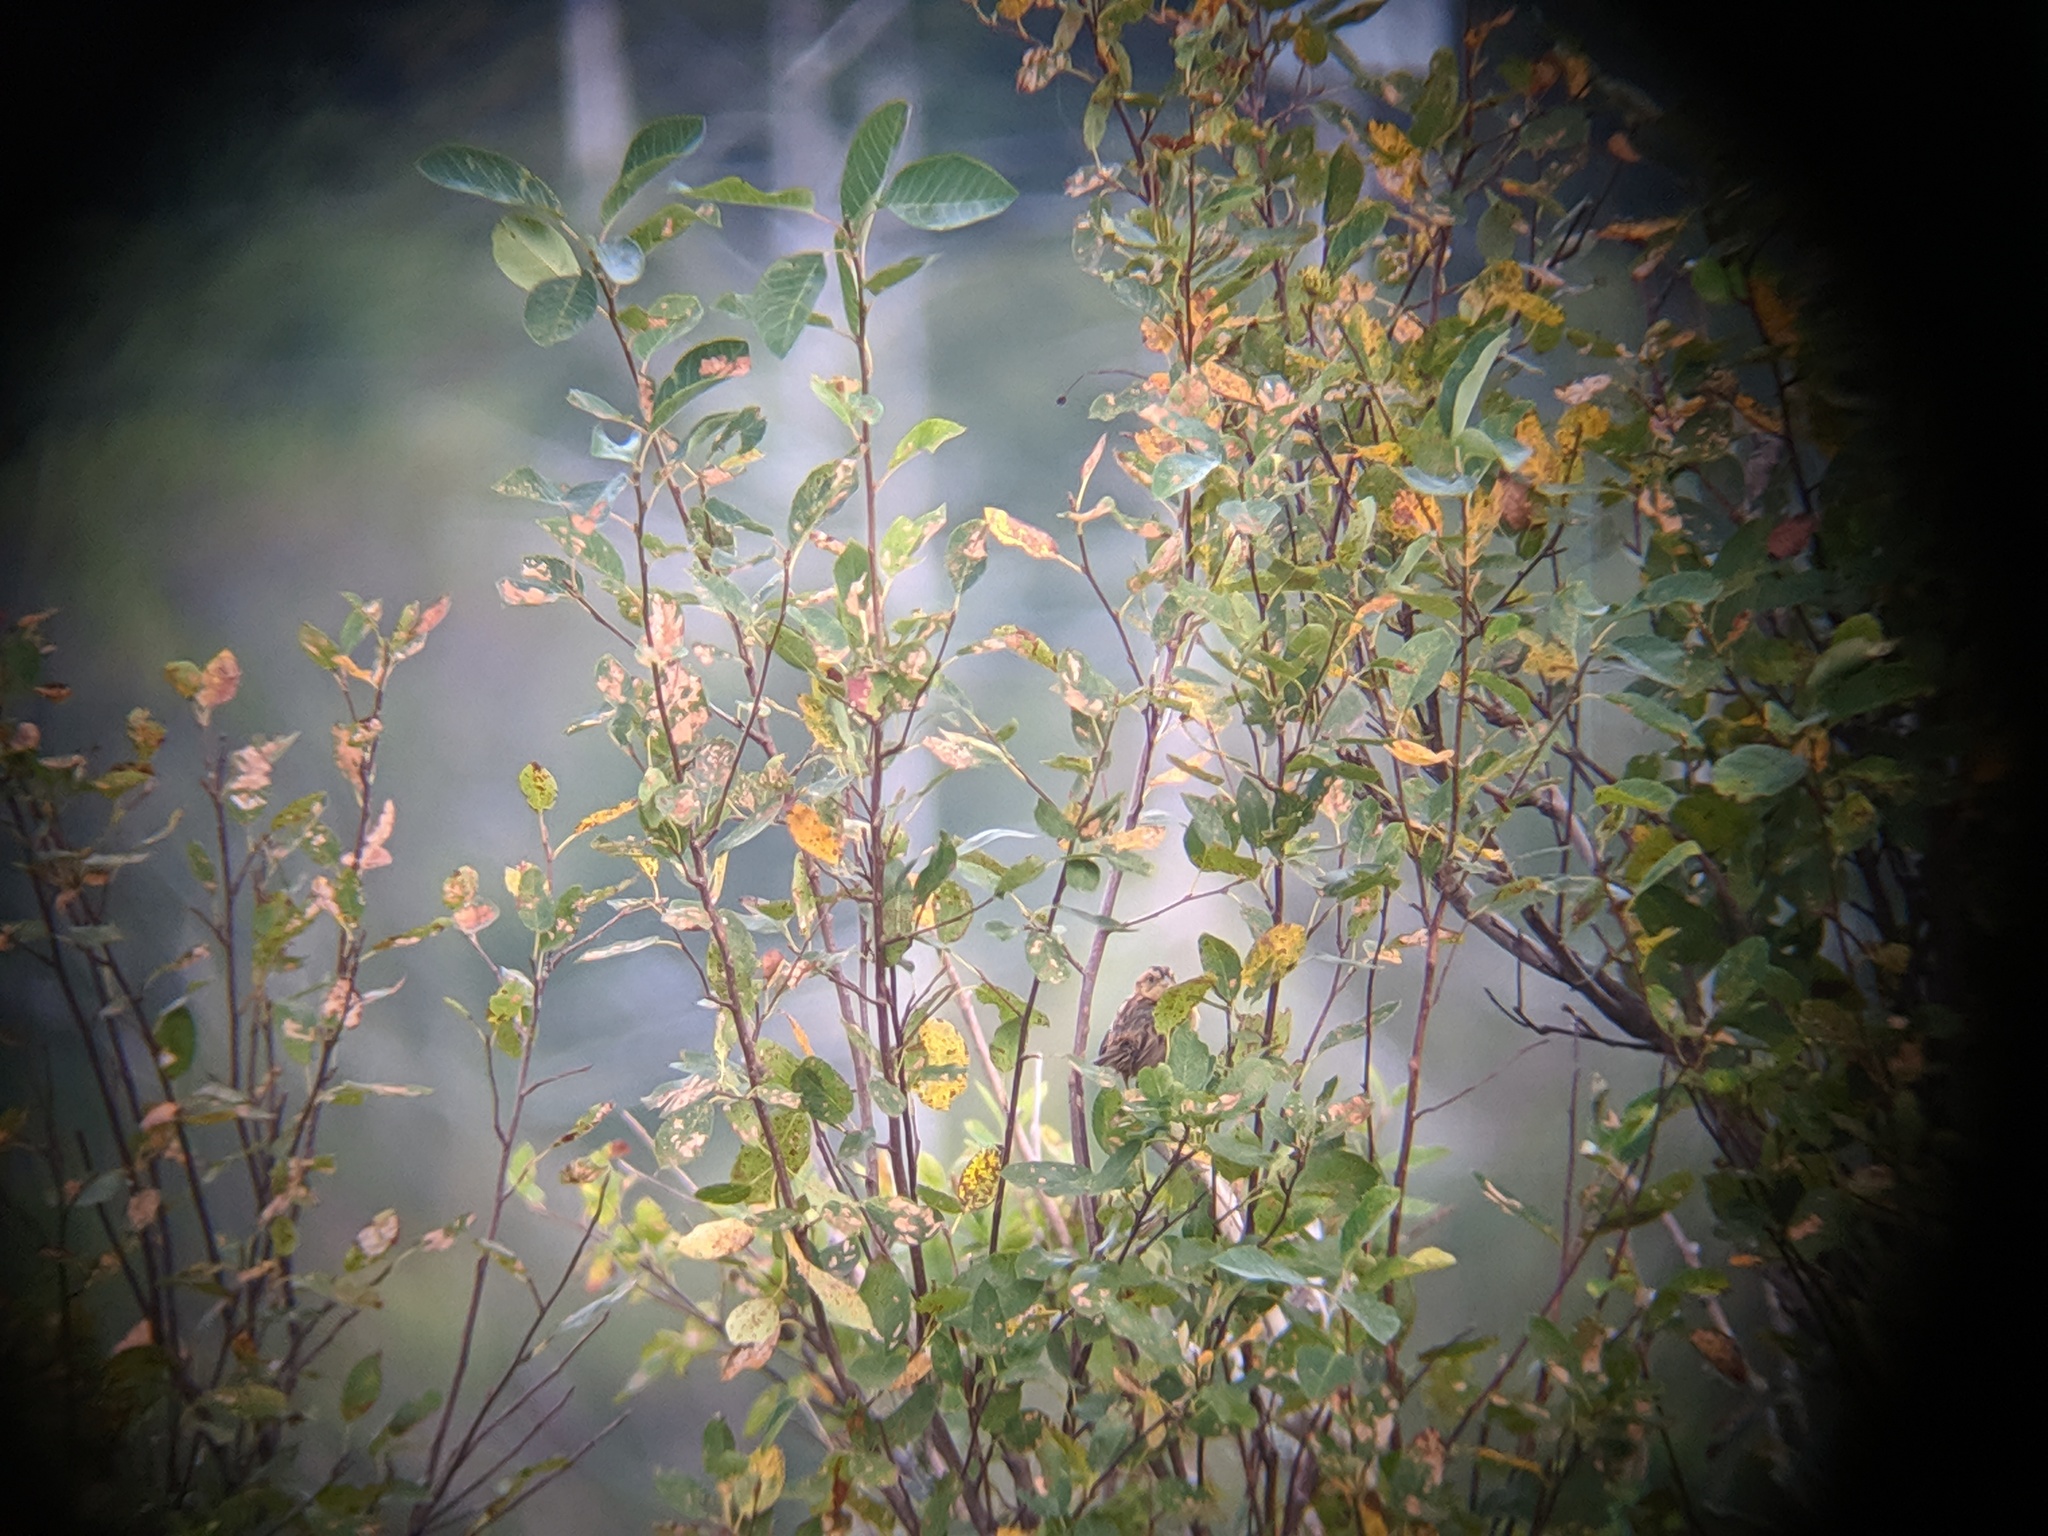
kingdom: Animalia
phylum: Chordata
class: Aves
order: Passeriformes
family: Passerellidae
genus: Ammospiza
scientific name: Ammospiza nelsoni
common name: Nelson's sparrow
